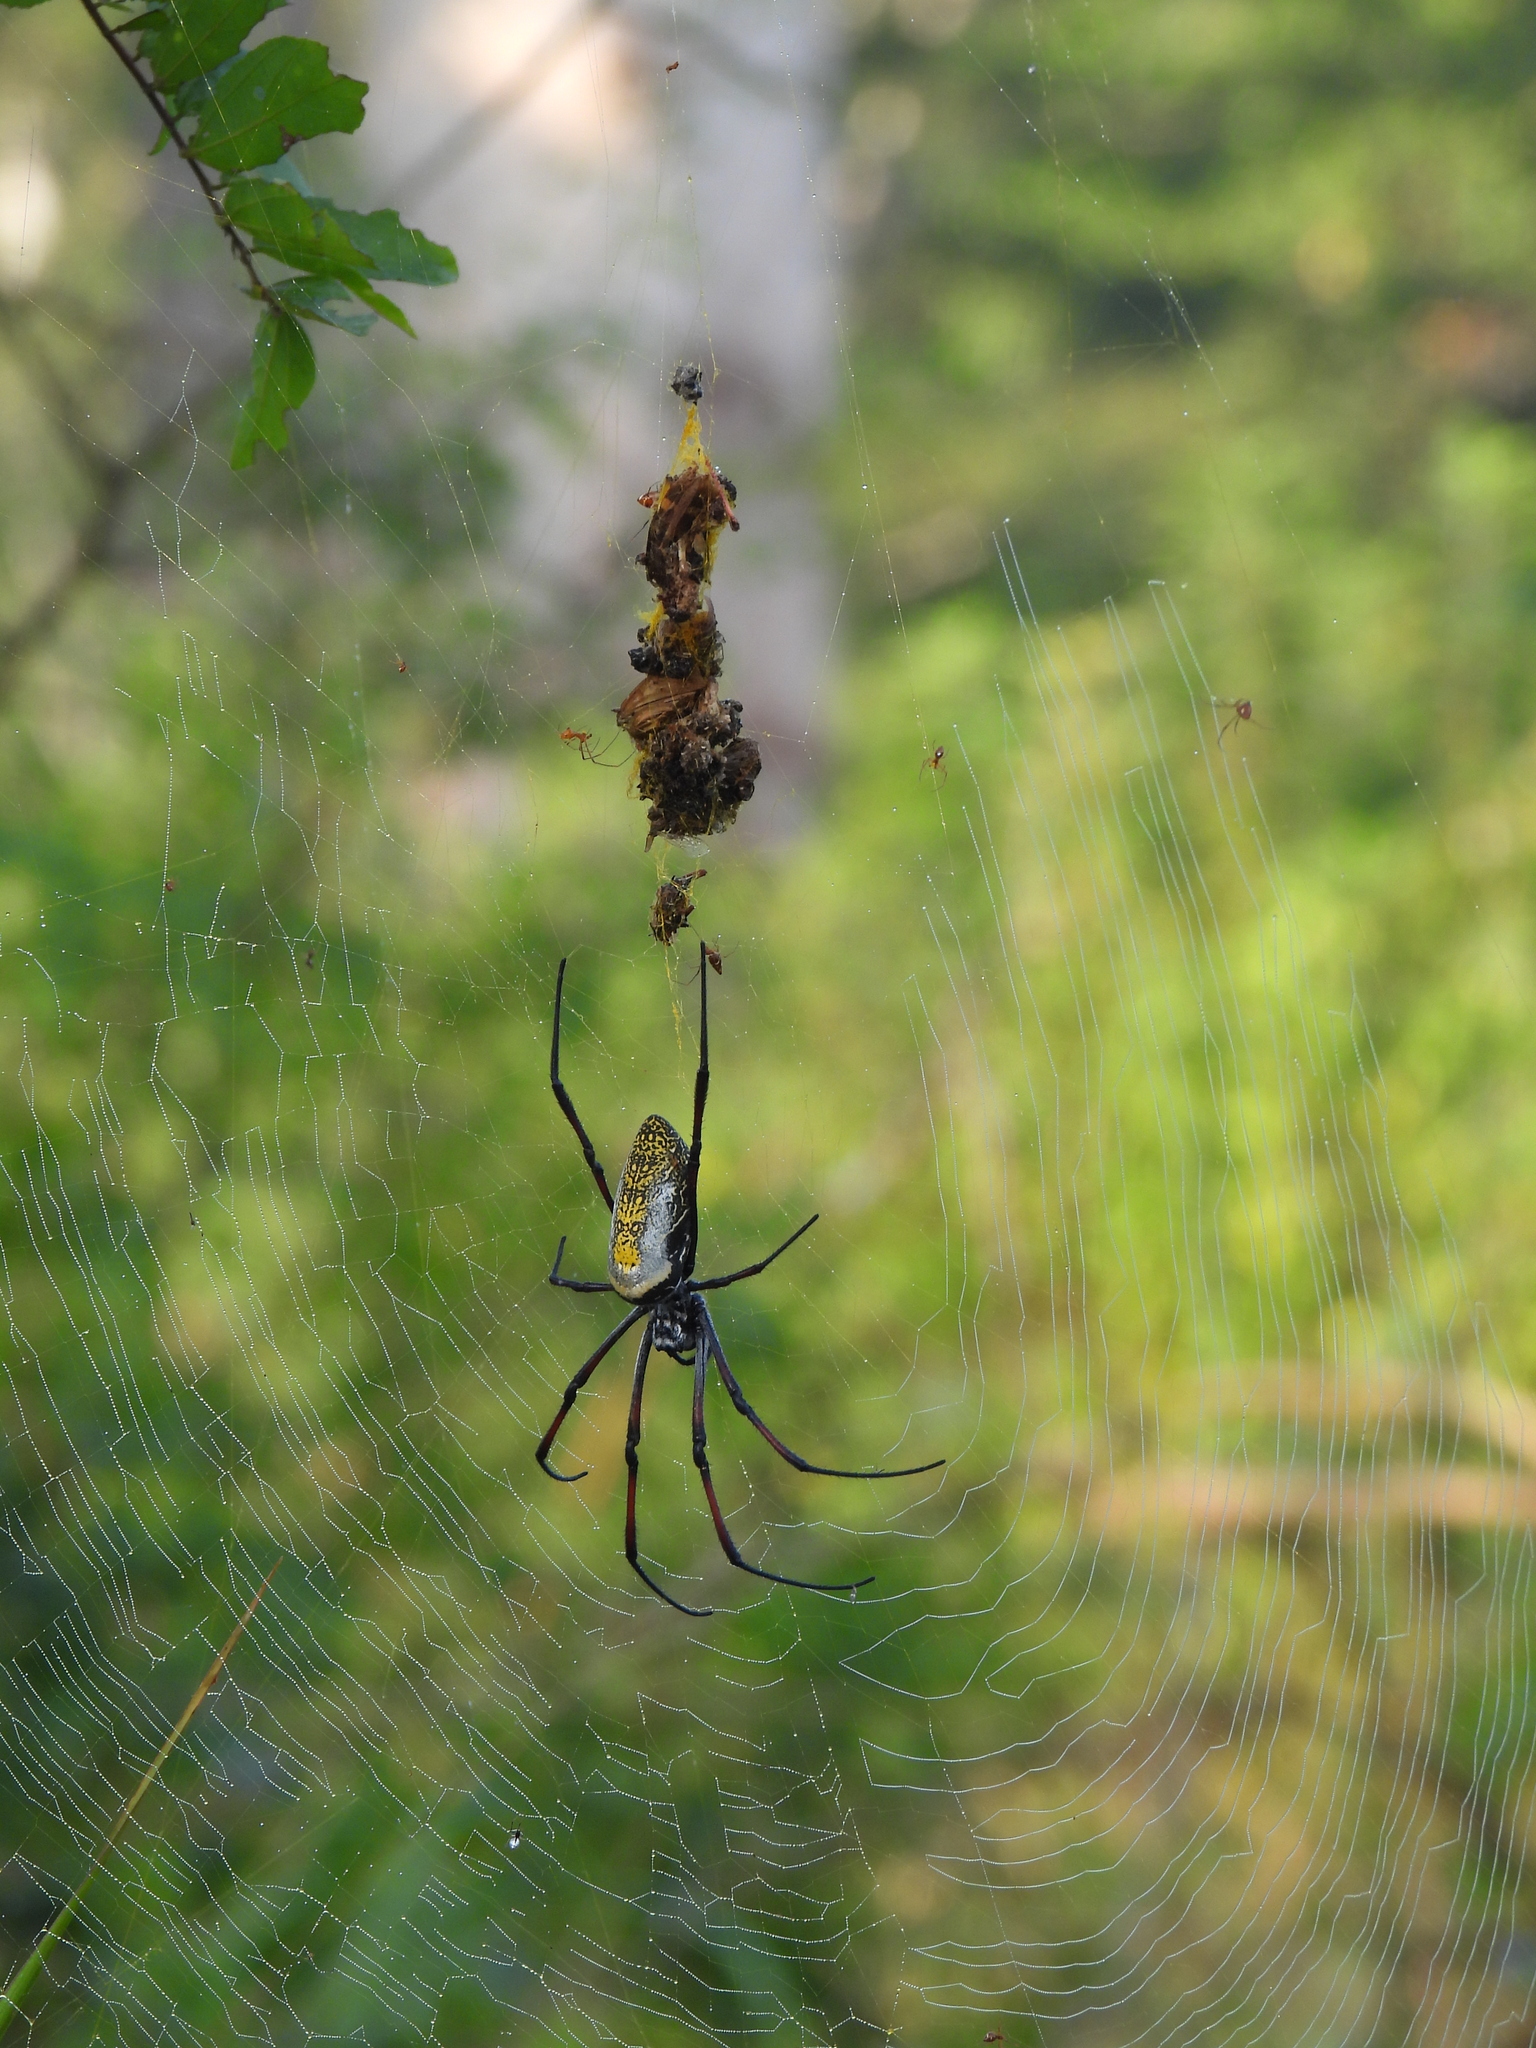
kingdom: Animalia
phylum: Arthropoda
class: Arachnida
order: Araneae
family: Araneidae
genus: Trichonephila
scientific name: Trichonephila inaurata
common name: Red-legged golden orb weaver
